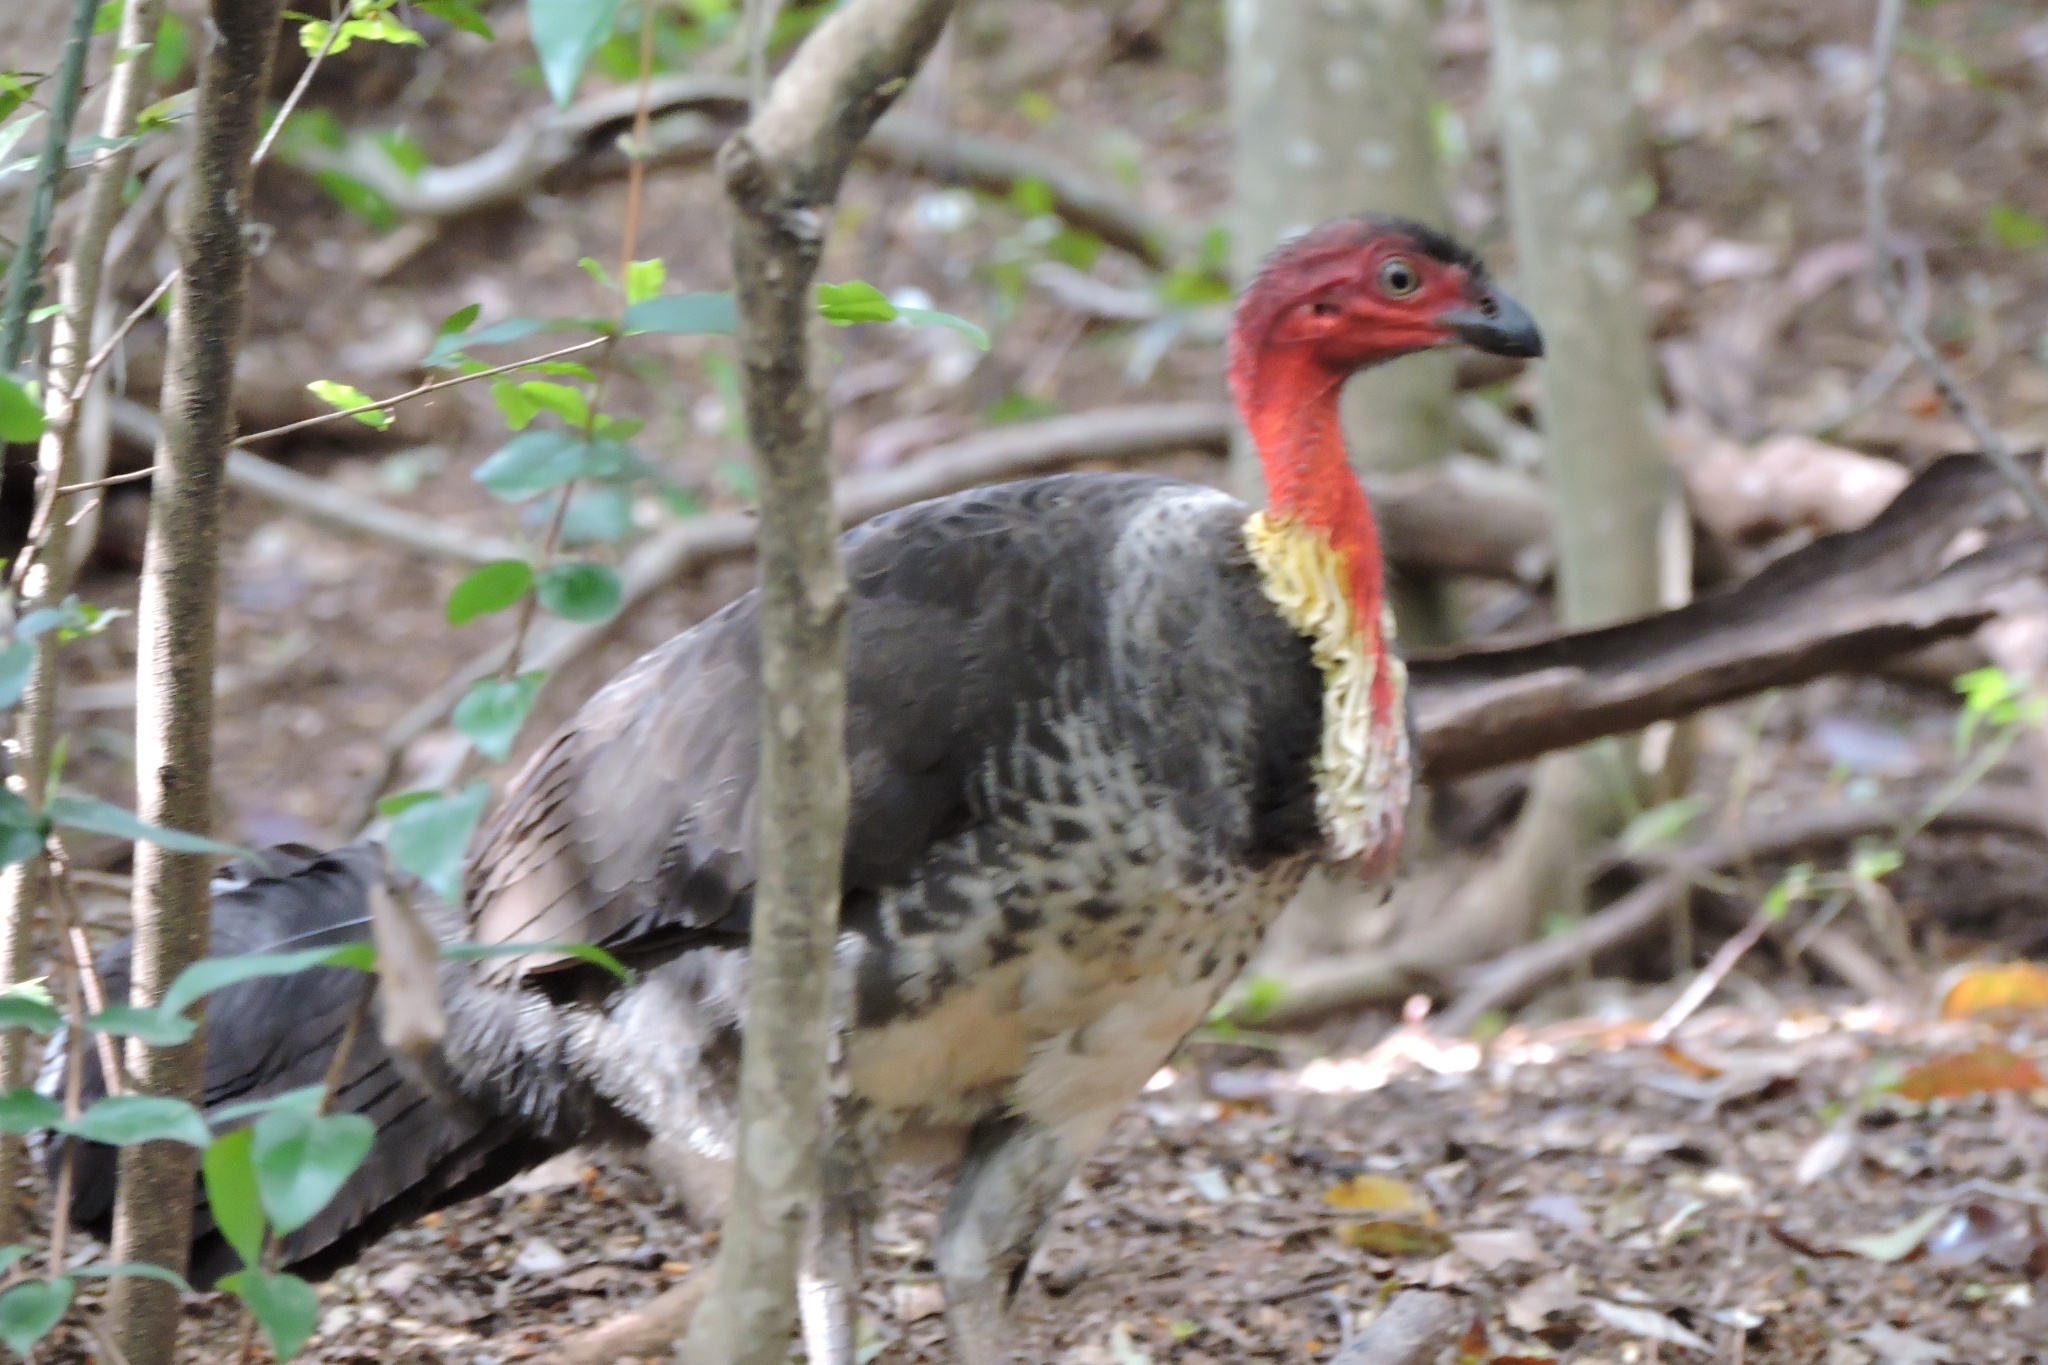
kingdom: Animalia
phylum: Chordata
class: Aves
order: Galliformes
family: Megapodiidae
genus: Alectura
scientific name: Alectura lathami
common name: Australian brushturkey
